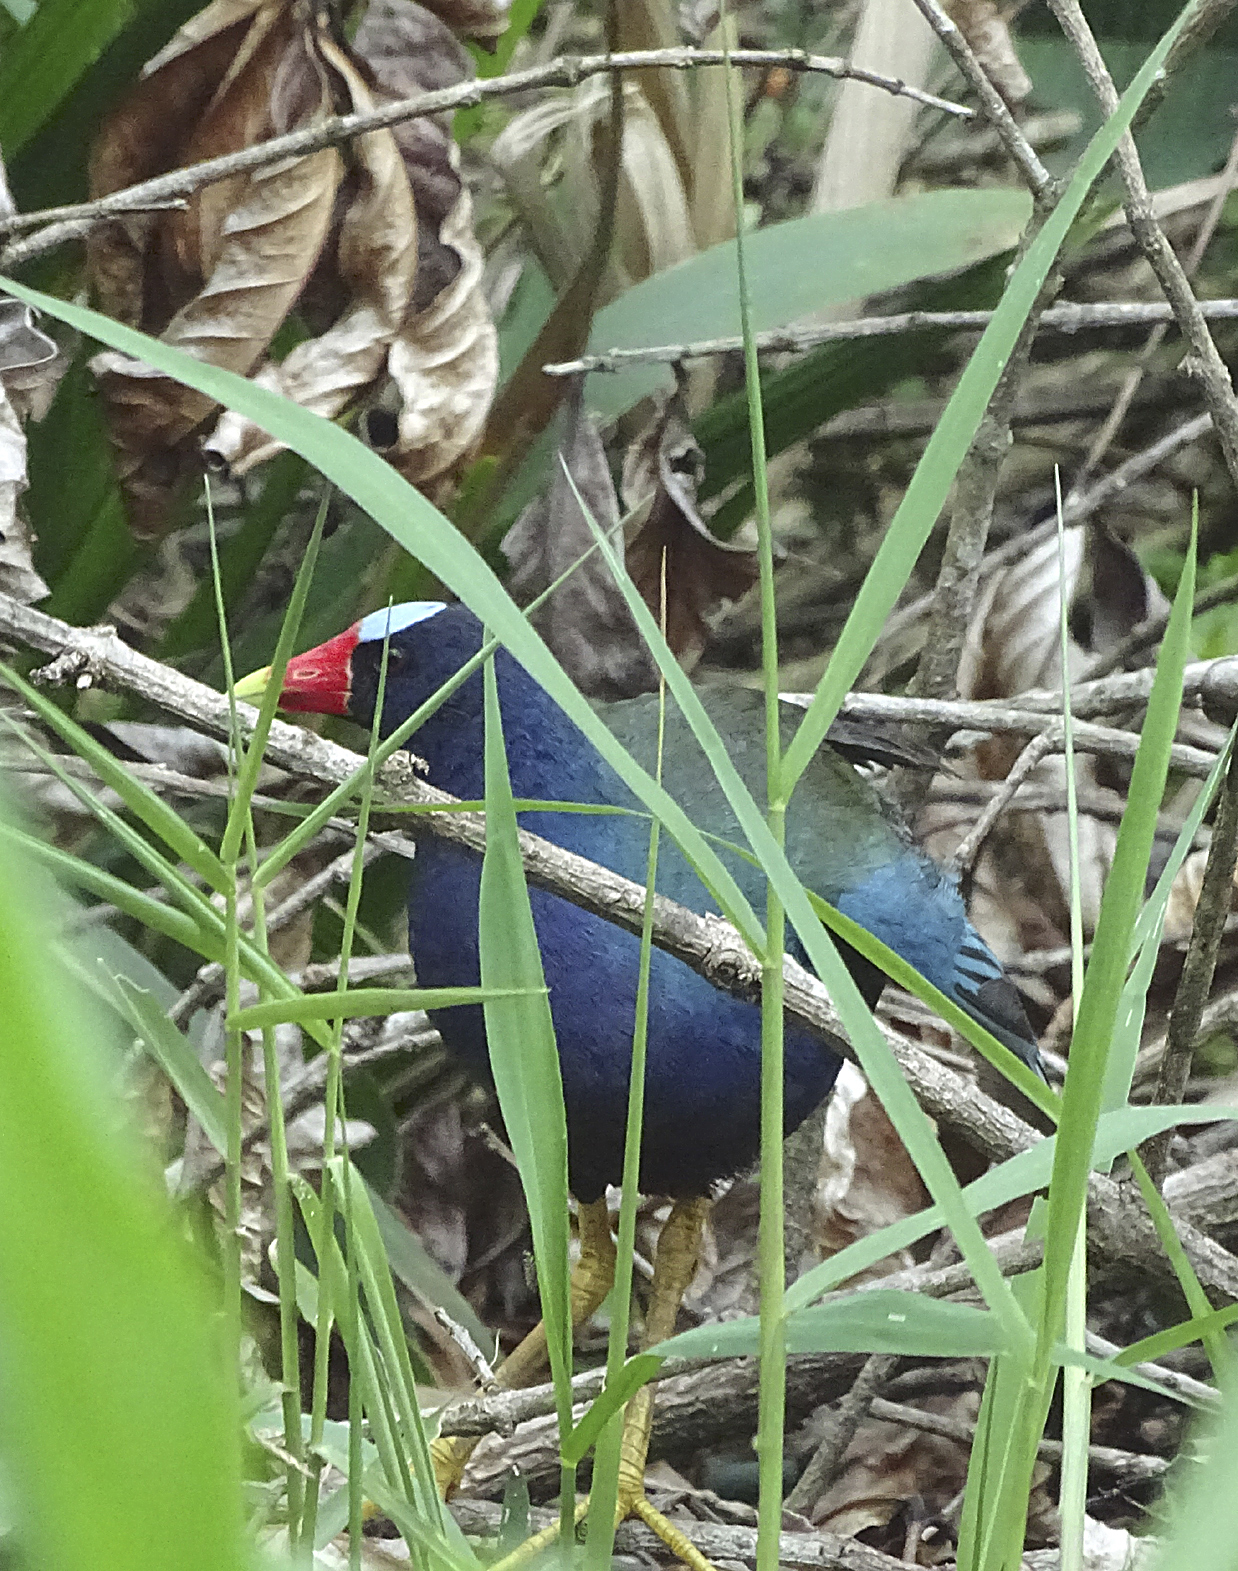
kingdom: Animalia
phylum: Chordata
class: Aves
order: Gruiformes
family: Rallidae
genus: Porphyrio
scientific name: Porphyrio martinica
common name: Purple gallinule
